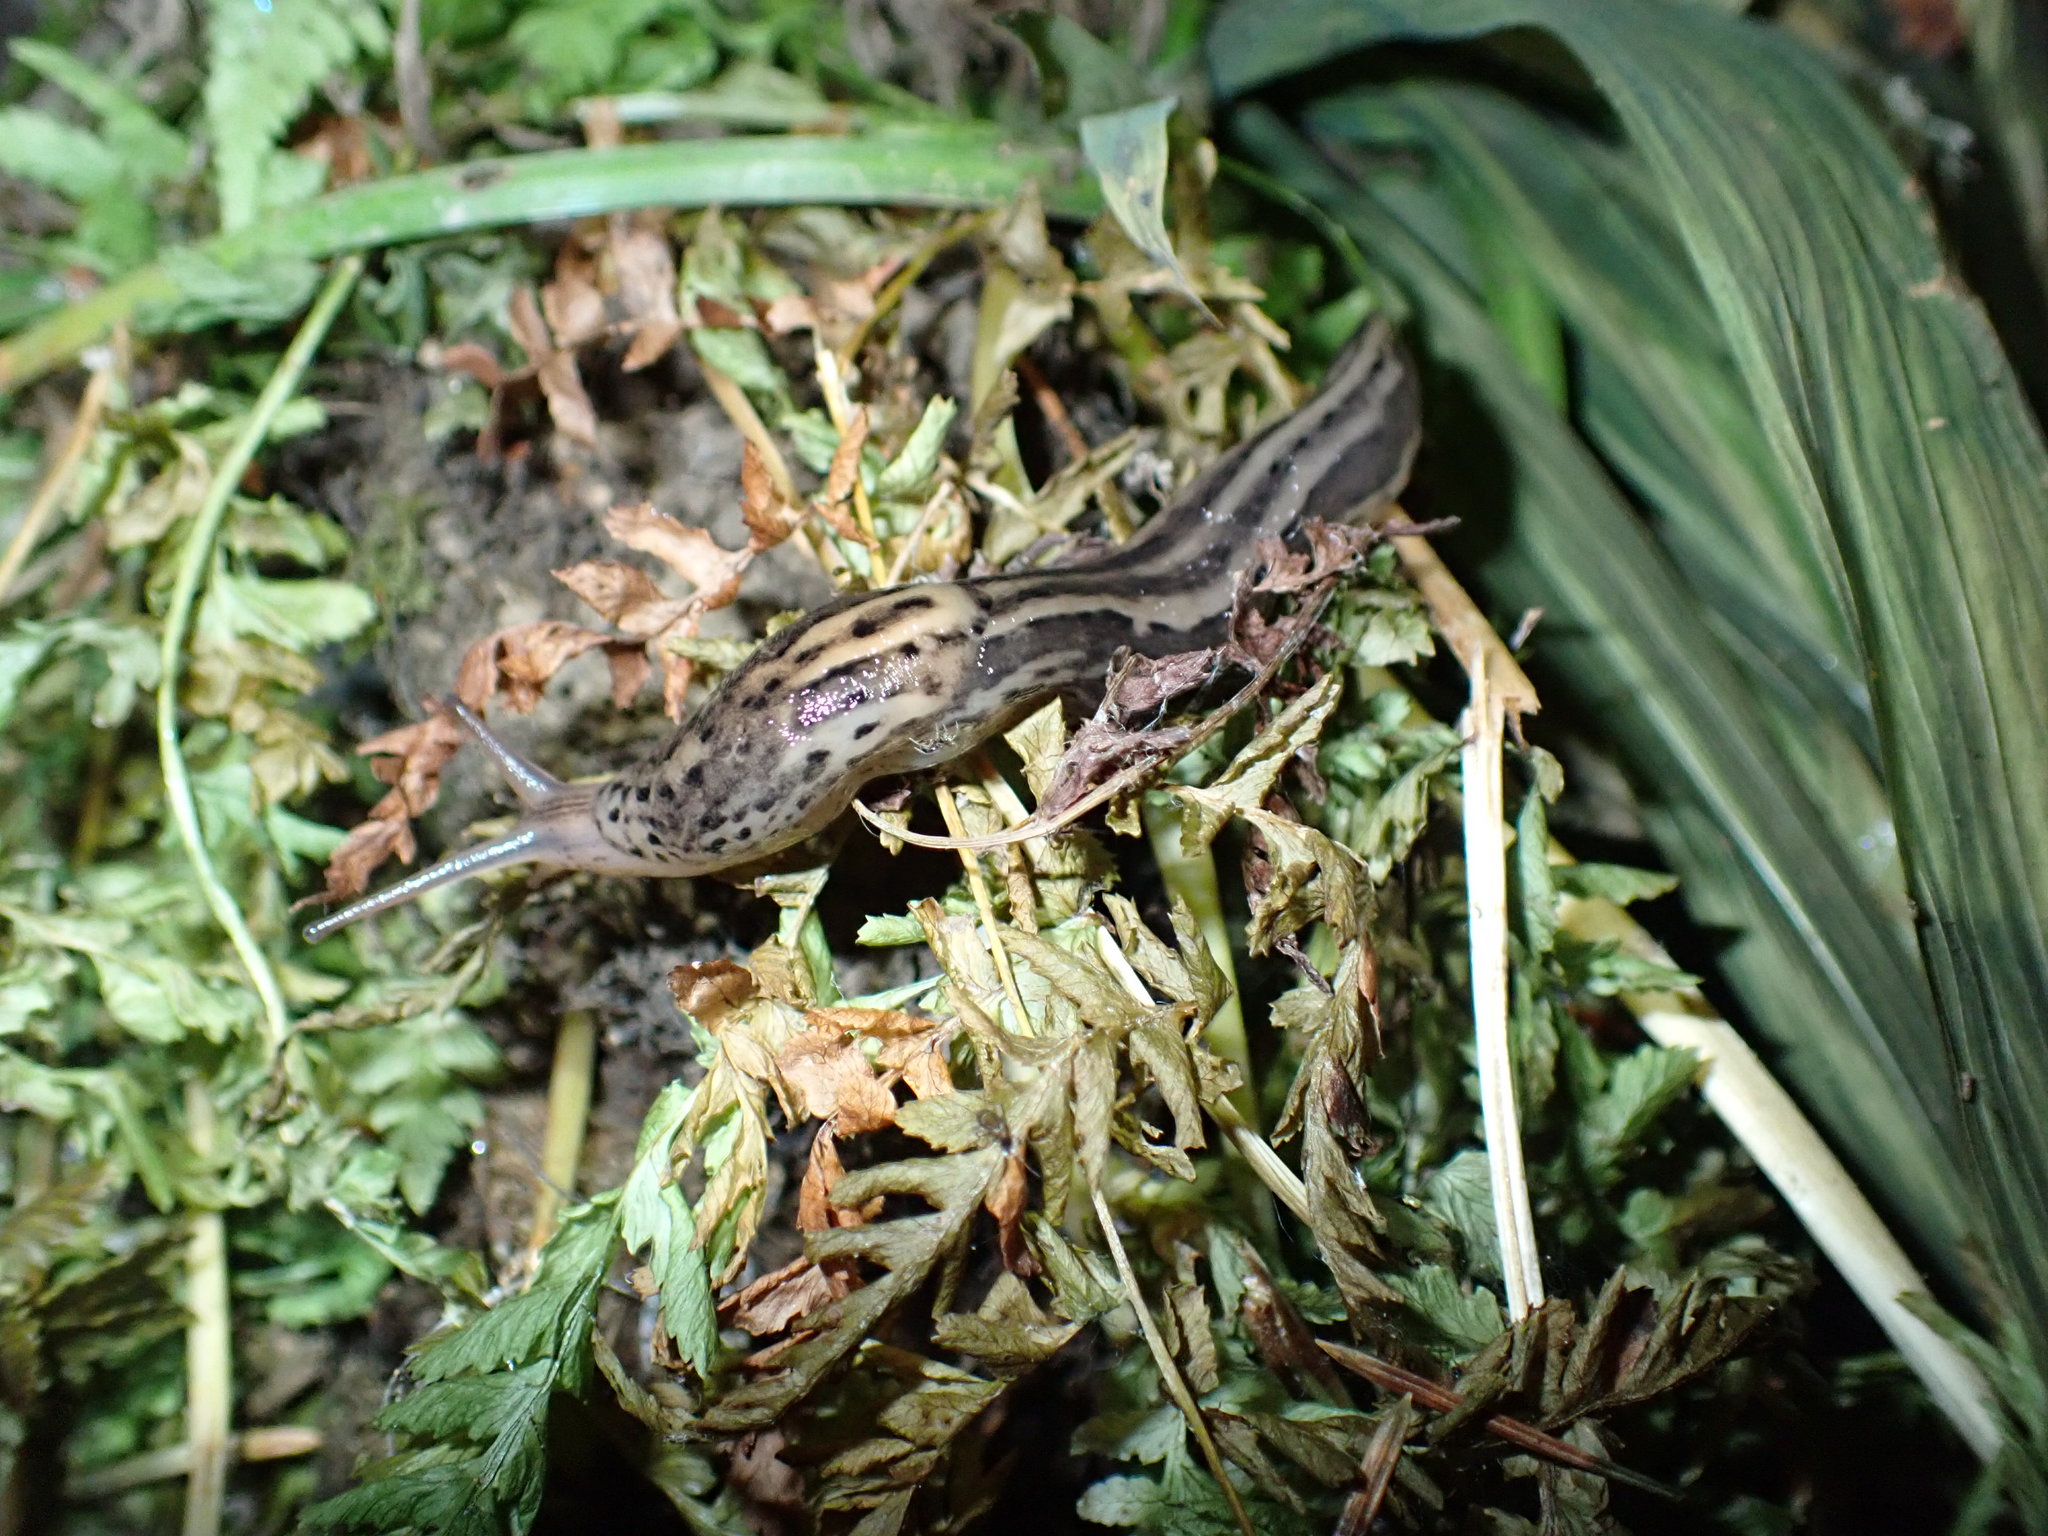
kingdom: Animalia
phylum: Mollusca
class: Gastropoda
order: Stylommatophora
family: Limacidae
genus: Limax
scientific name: Limax maximus
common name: Great grey slug
